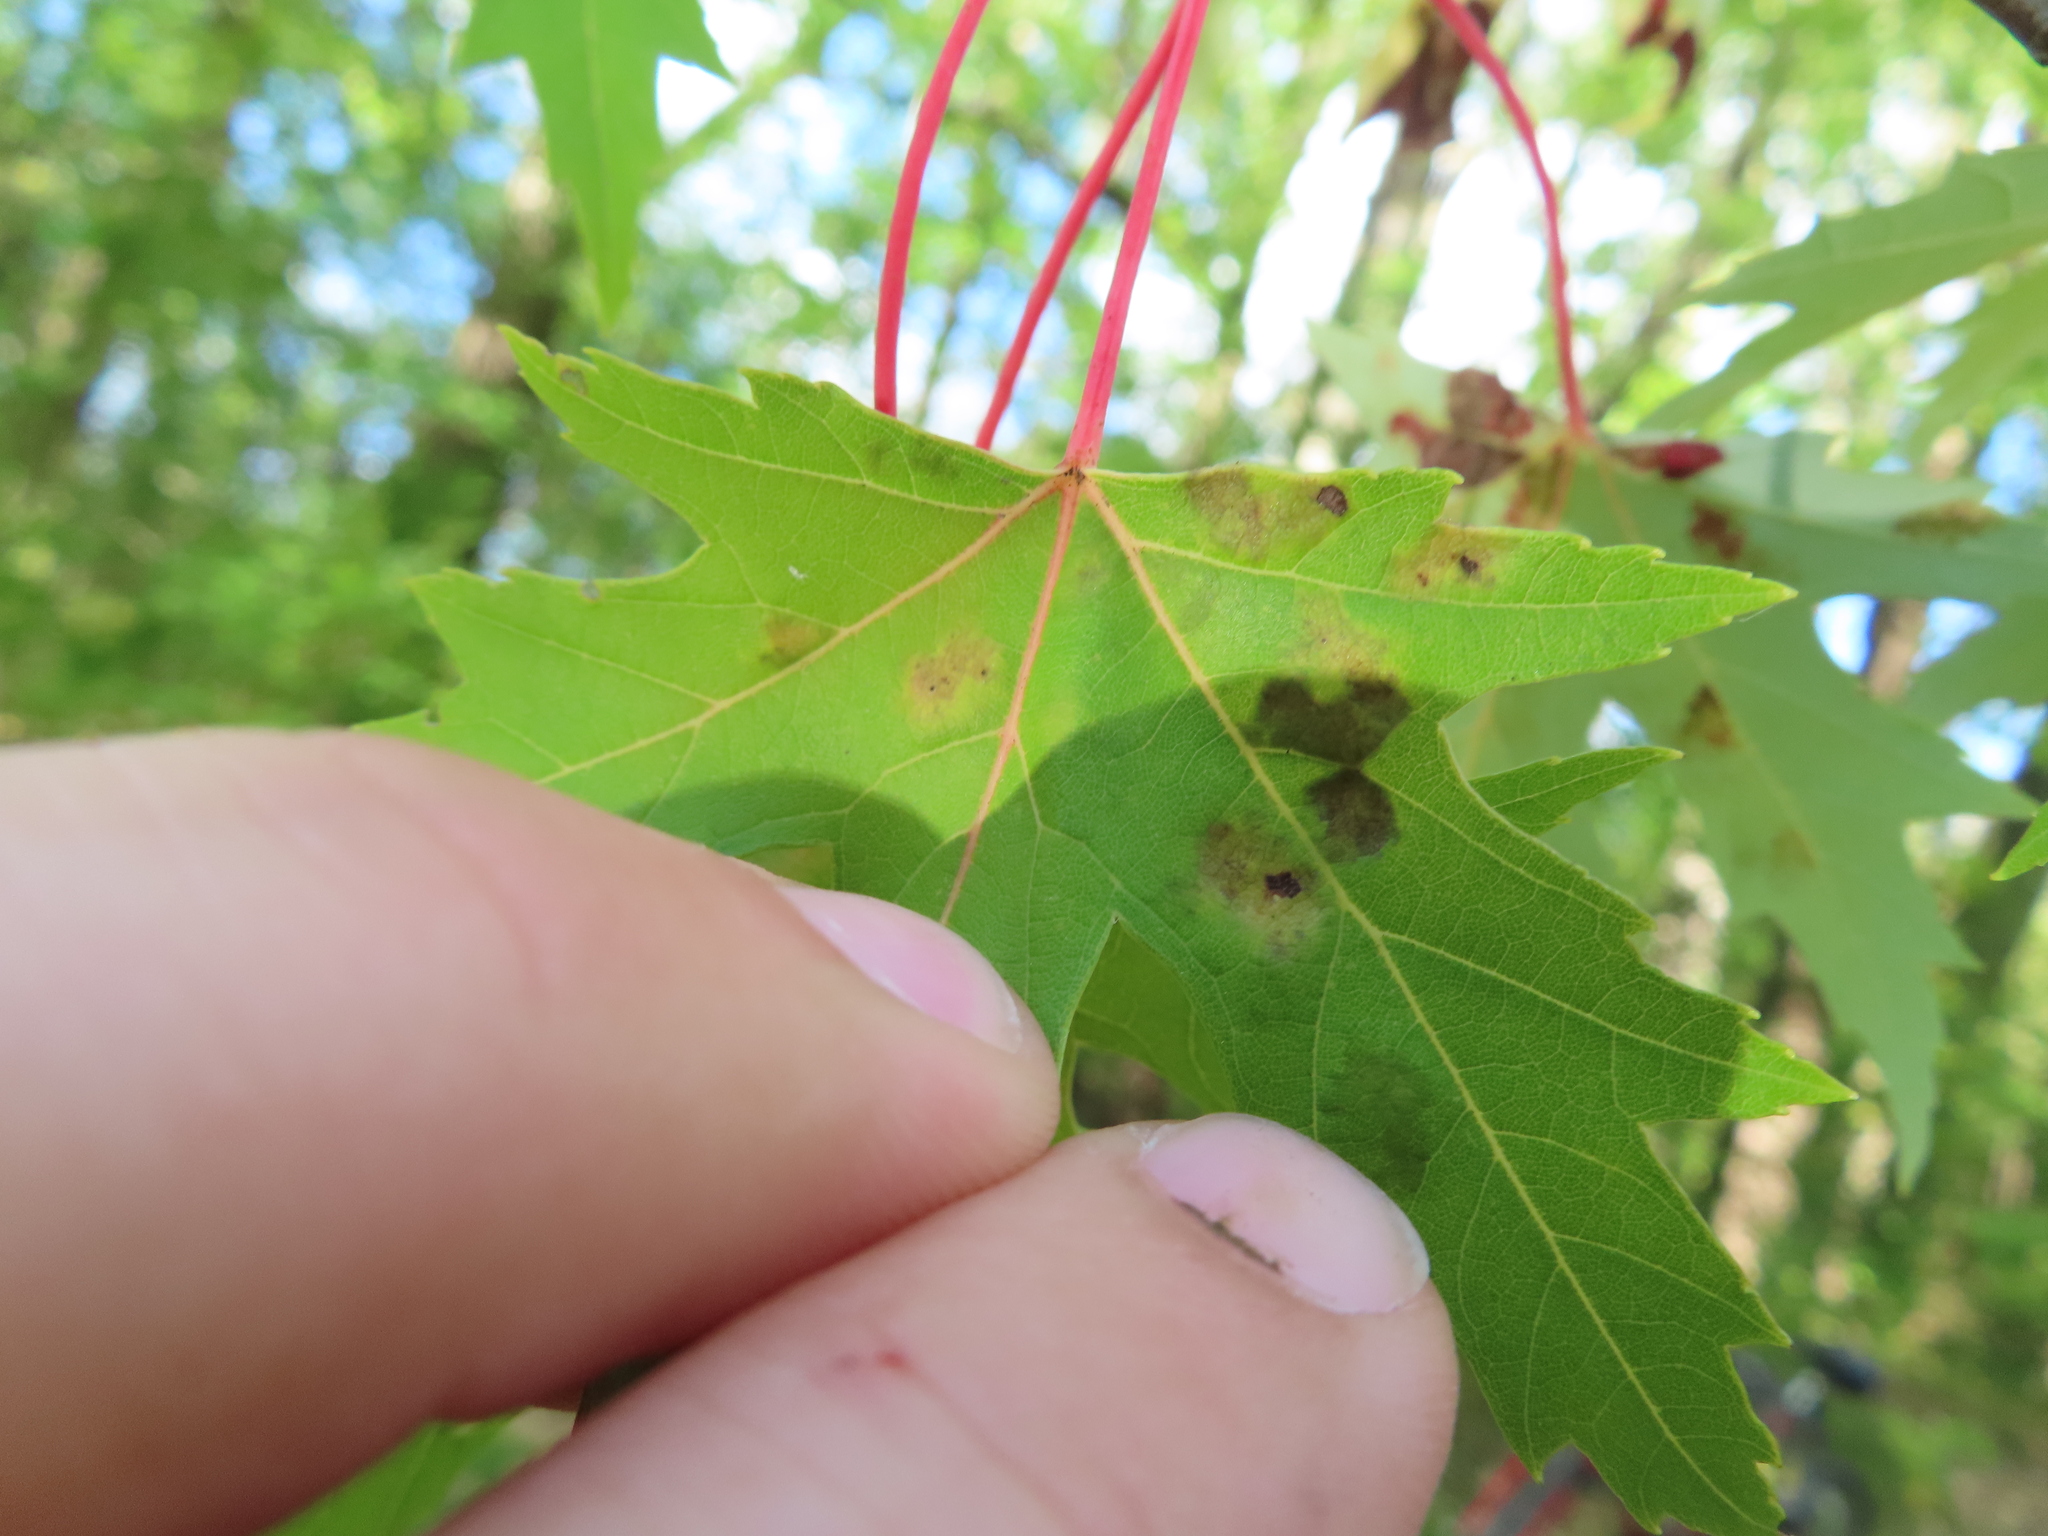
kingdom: Animalia
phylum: Arthropoda
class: Arachnida
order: Trombidiformes
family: Eriophyidae
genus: Eriophyes
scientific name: Eriophyes
